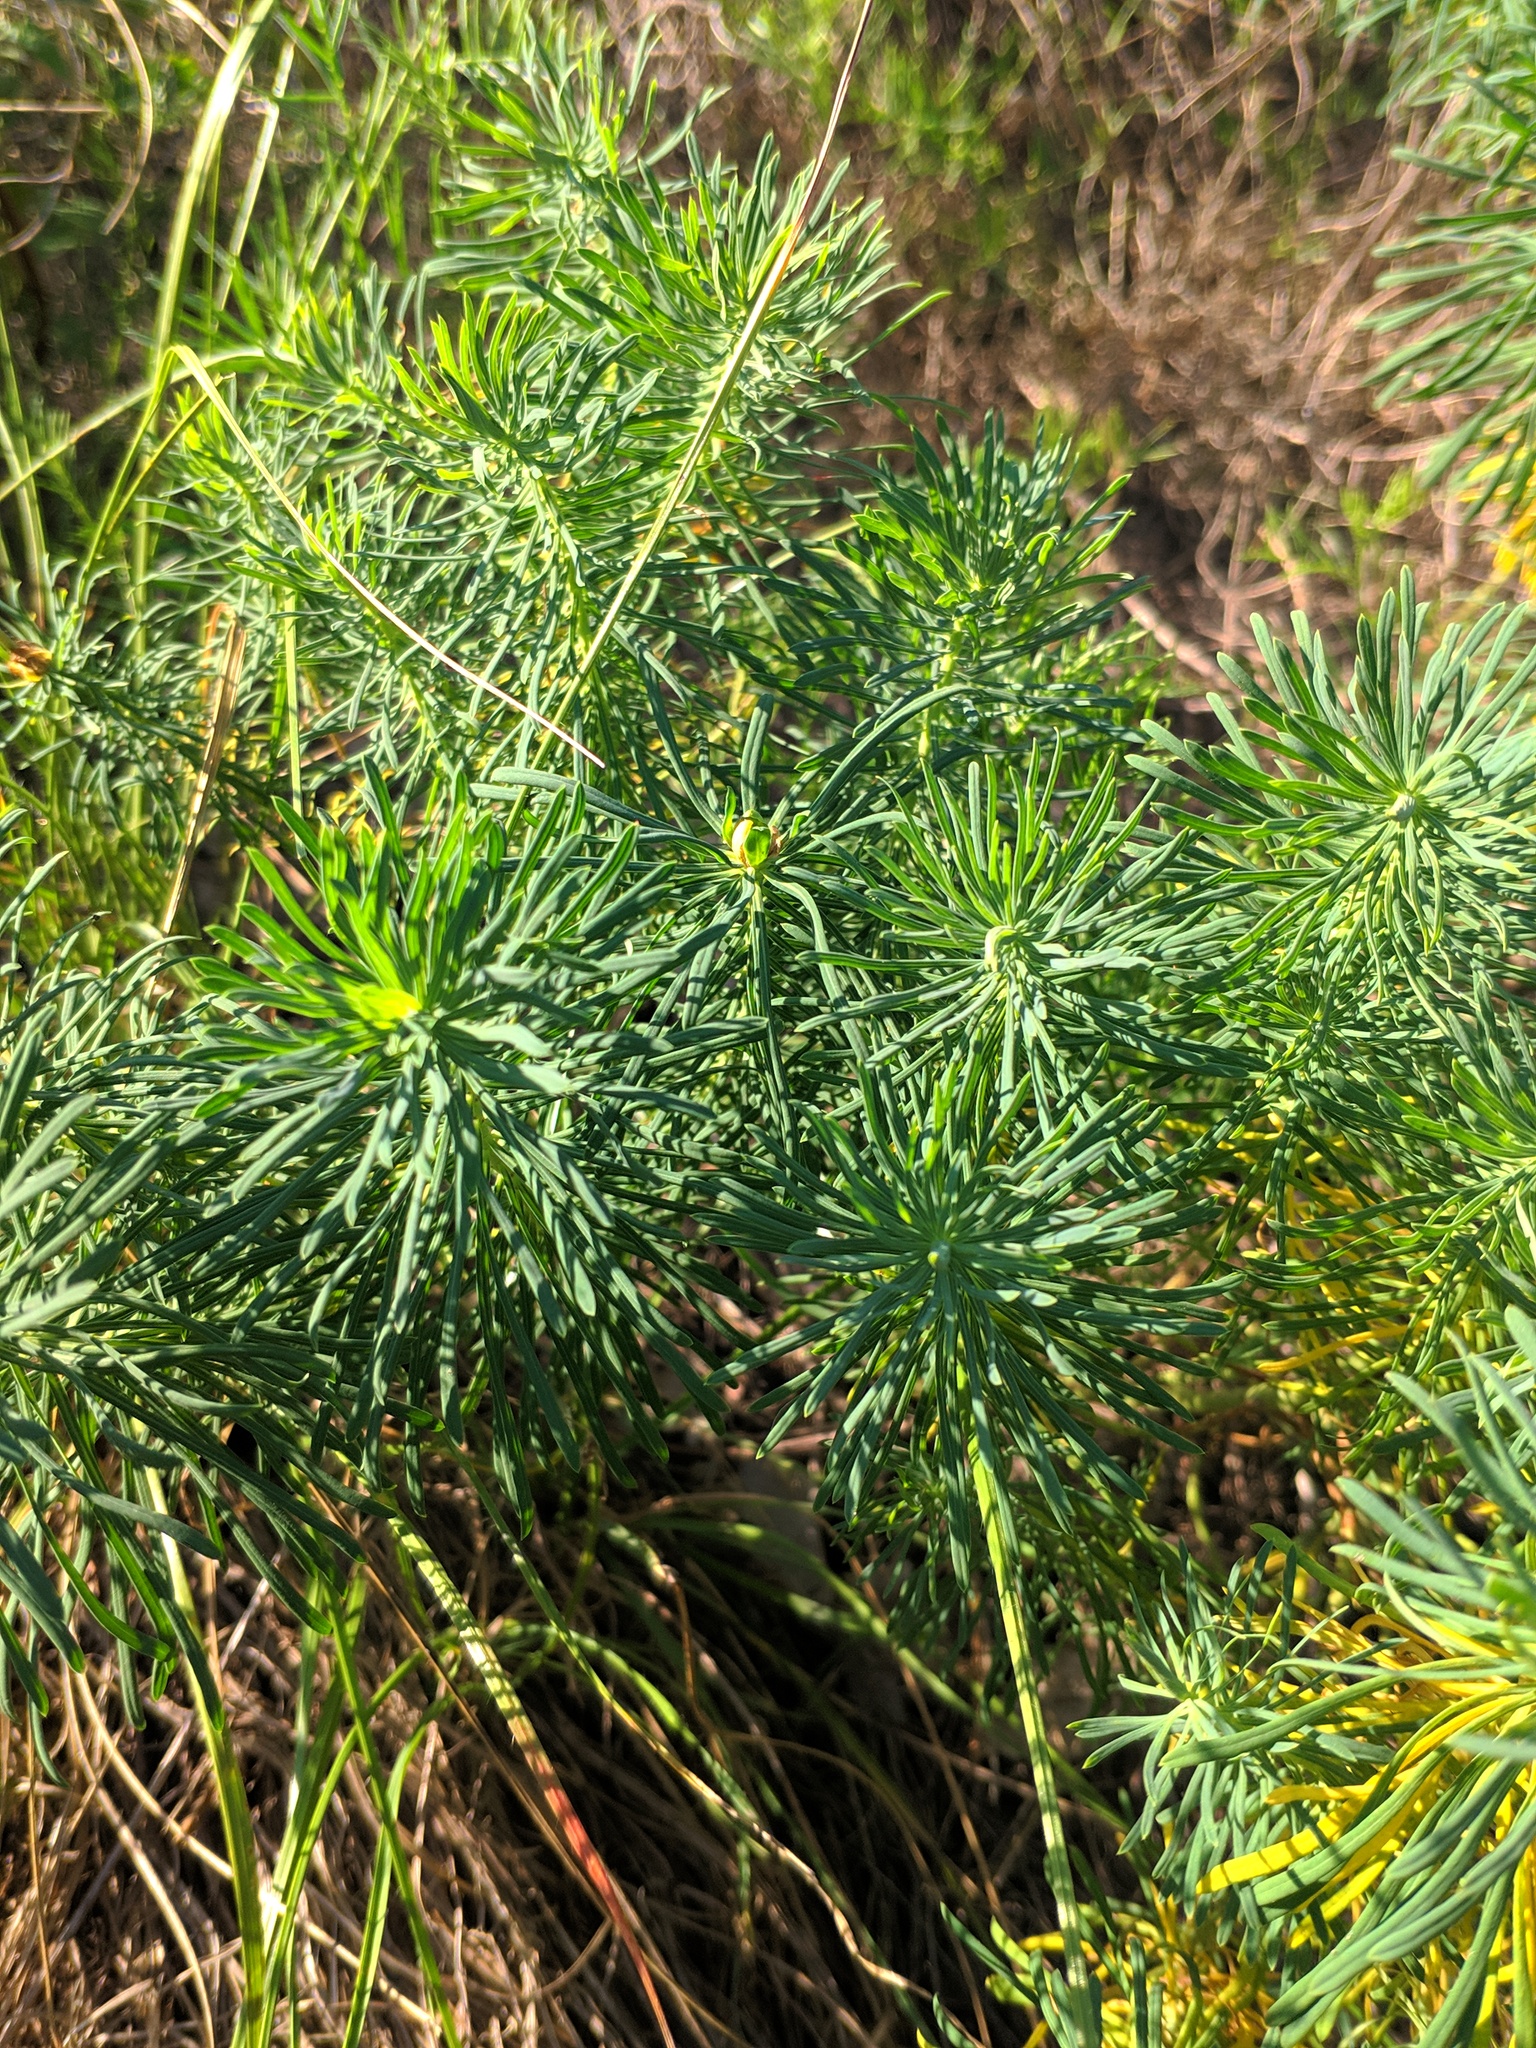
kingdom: Plantae
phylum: Tracheophyta
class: Magnoliopsida
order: Malpighiales
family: Euphorbiaceae
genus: Euphorbia
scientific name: Euphorbia cyparissias
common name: Cypress spurge
